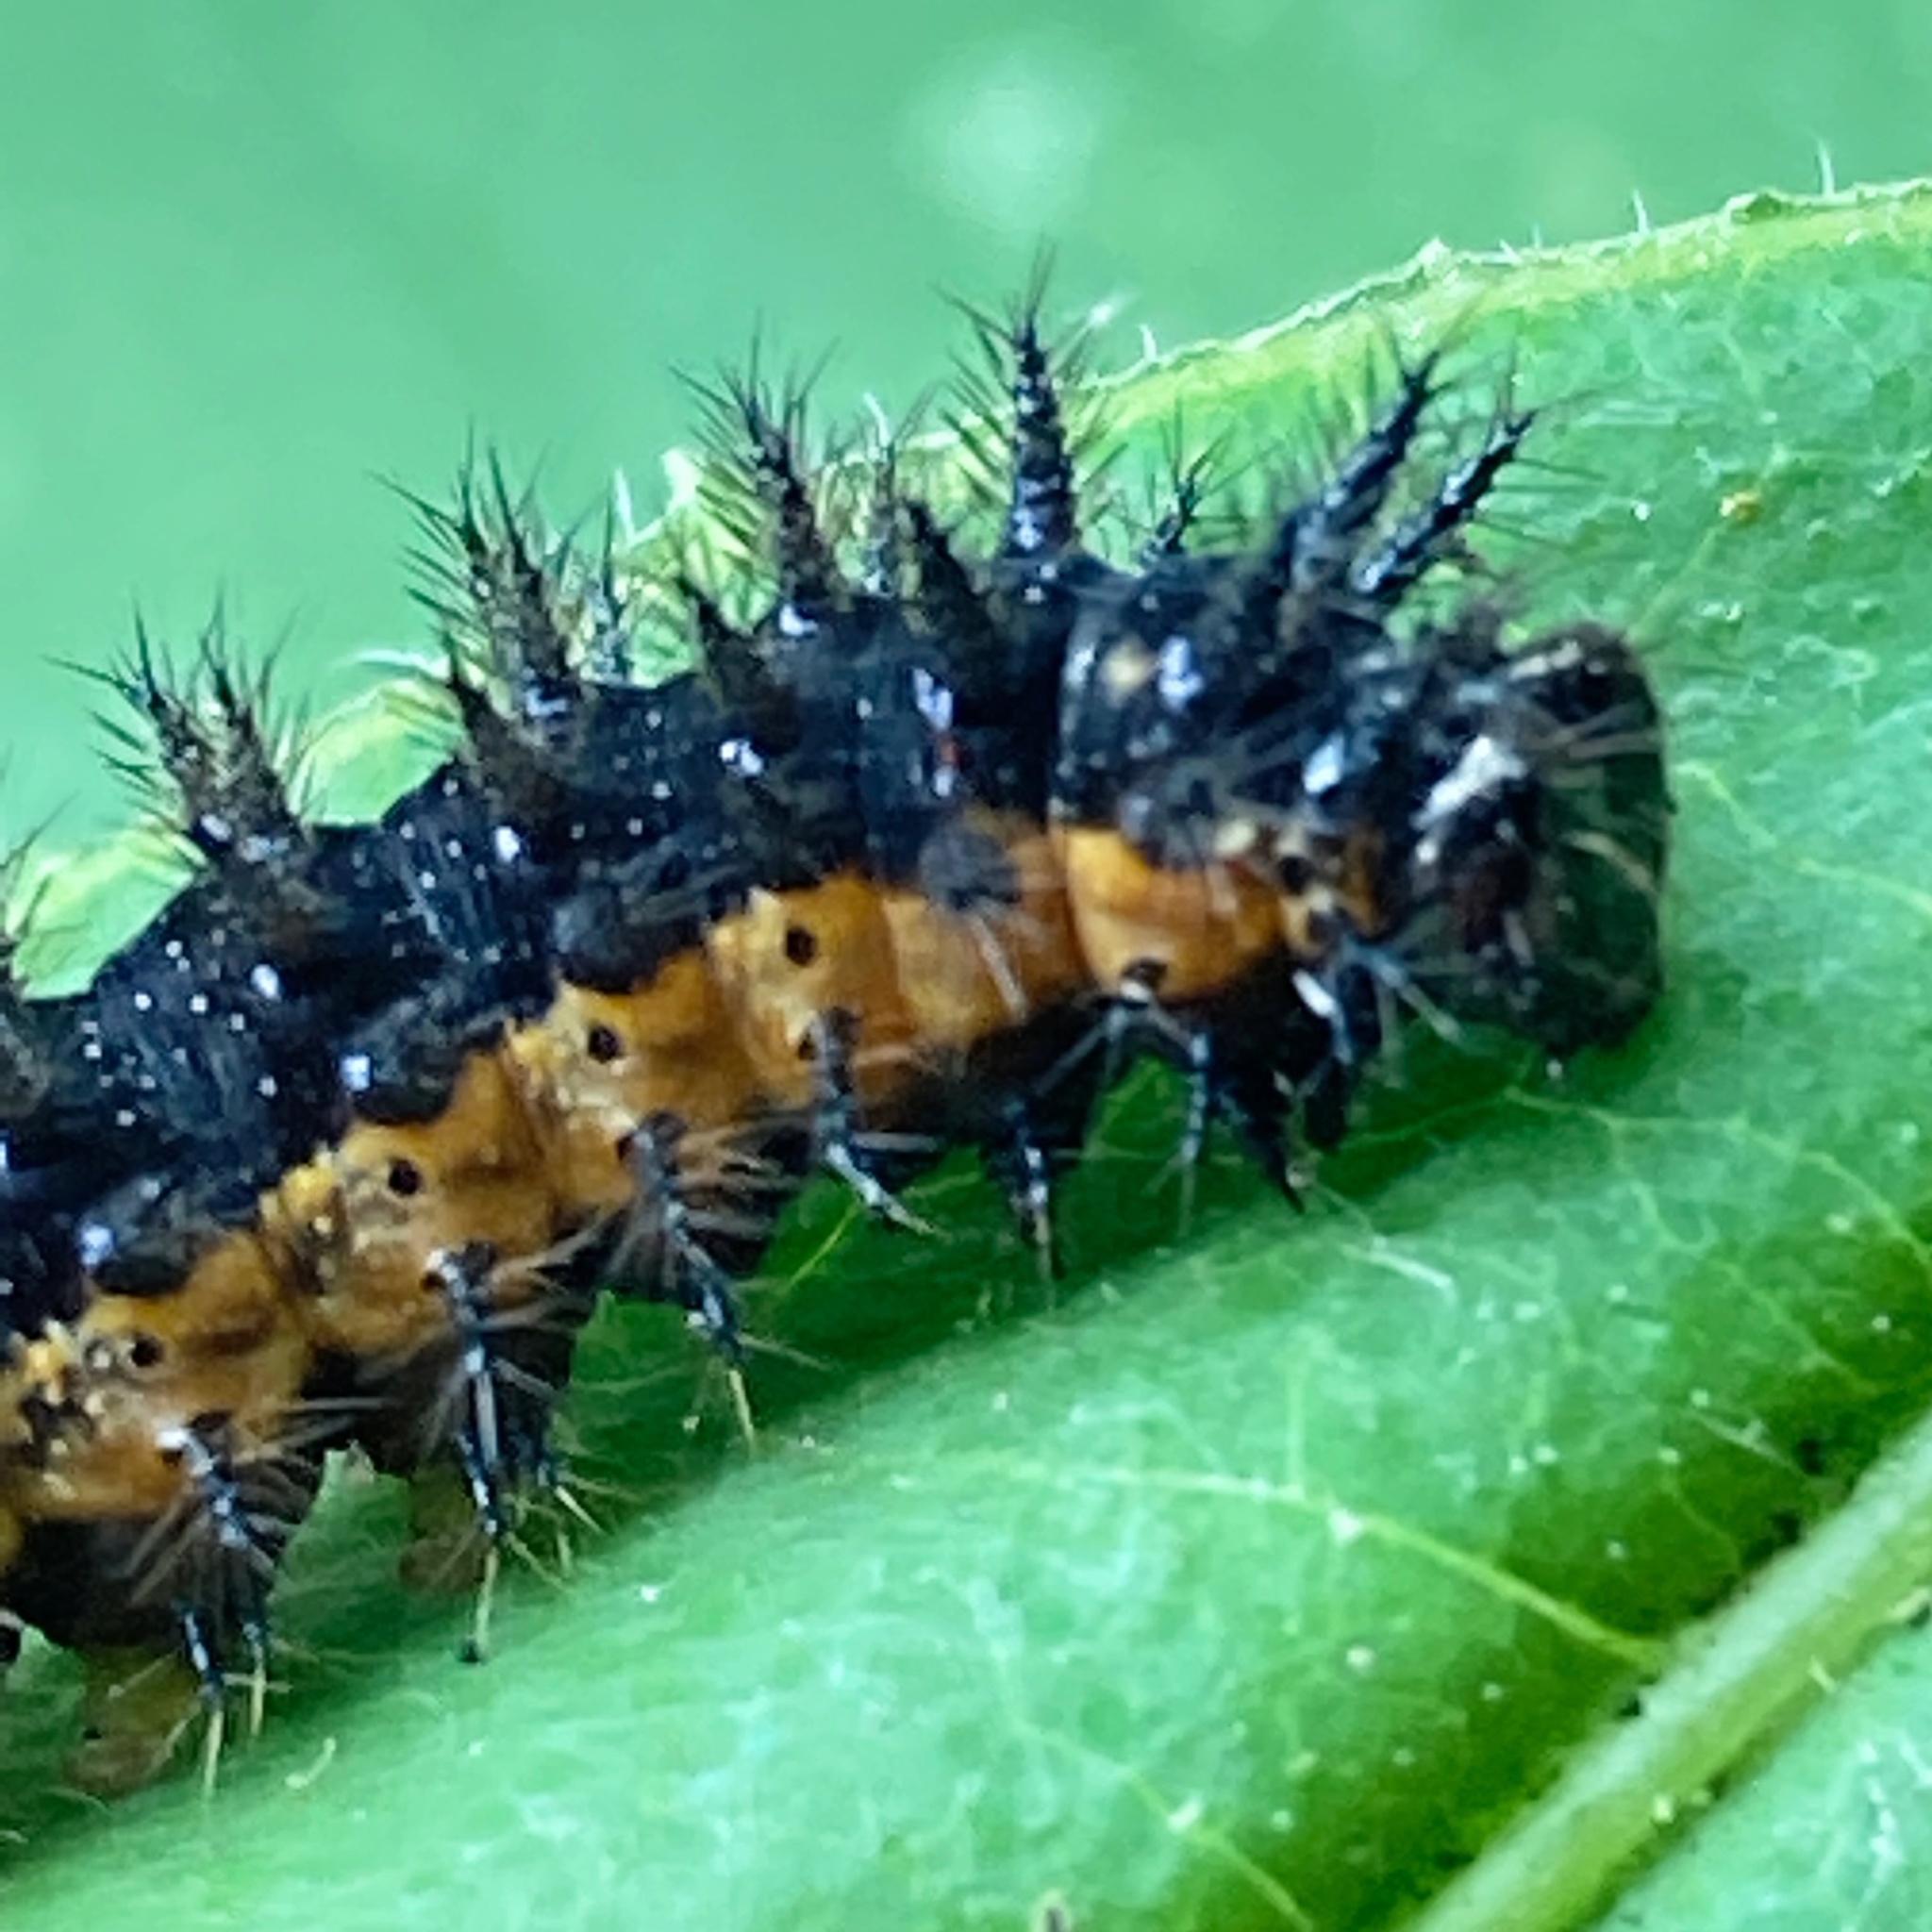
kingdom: Animalia
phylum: Arthropoda
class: Insecta
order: Lepidoptera
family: Nymphalidae
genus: Chlosyne
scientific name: Chlosyne nycteis
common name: Silvery checkerspot
